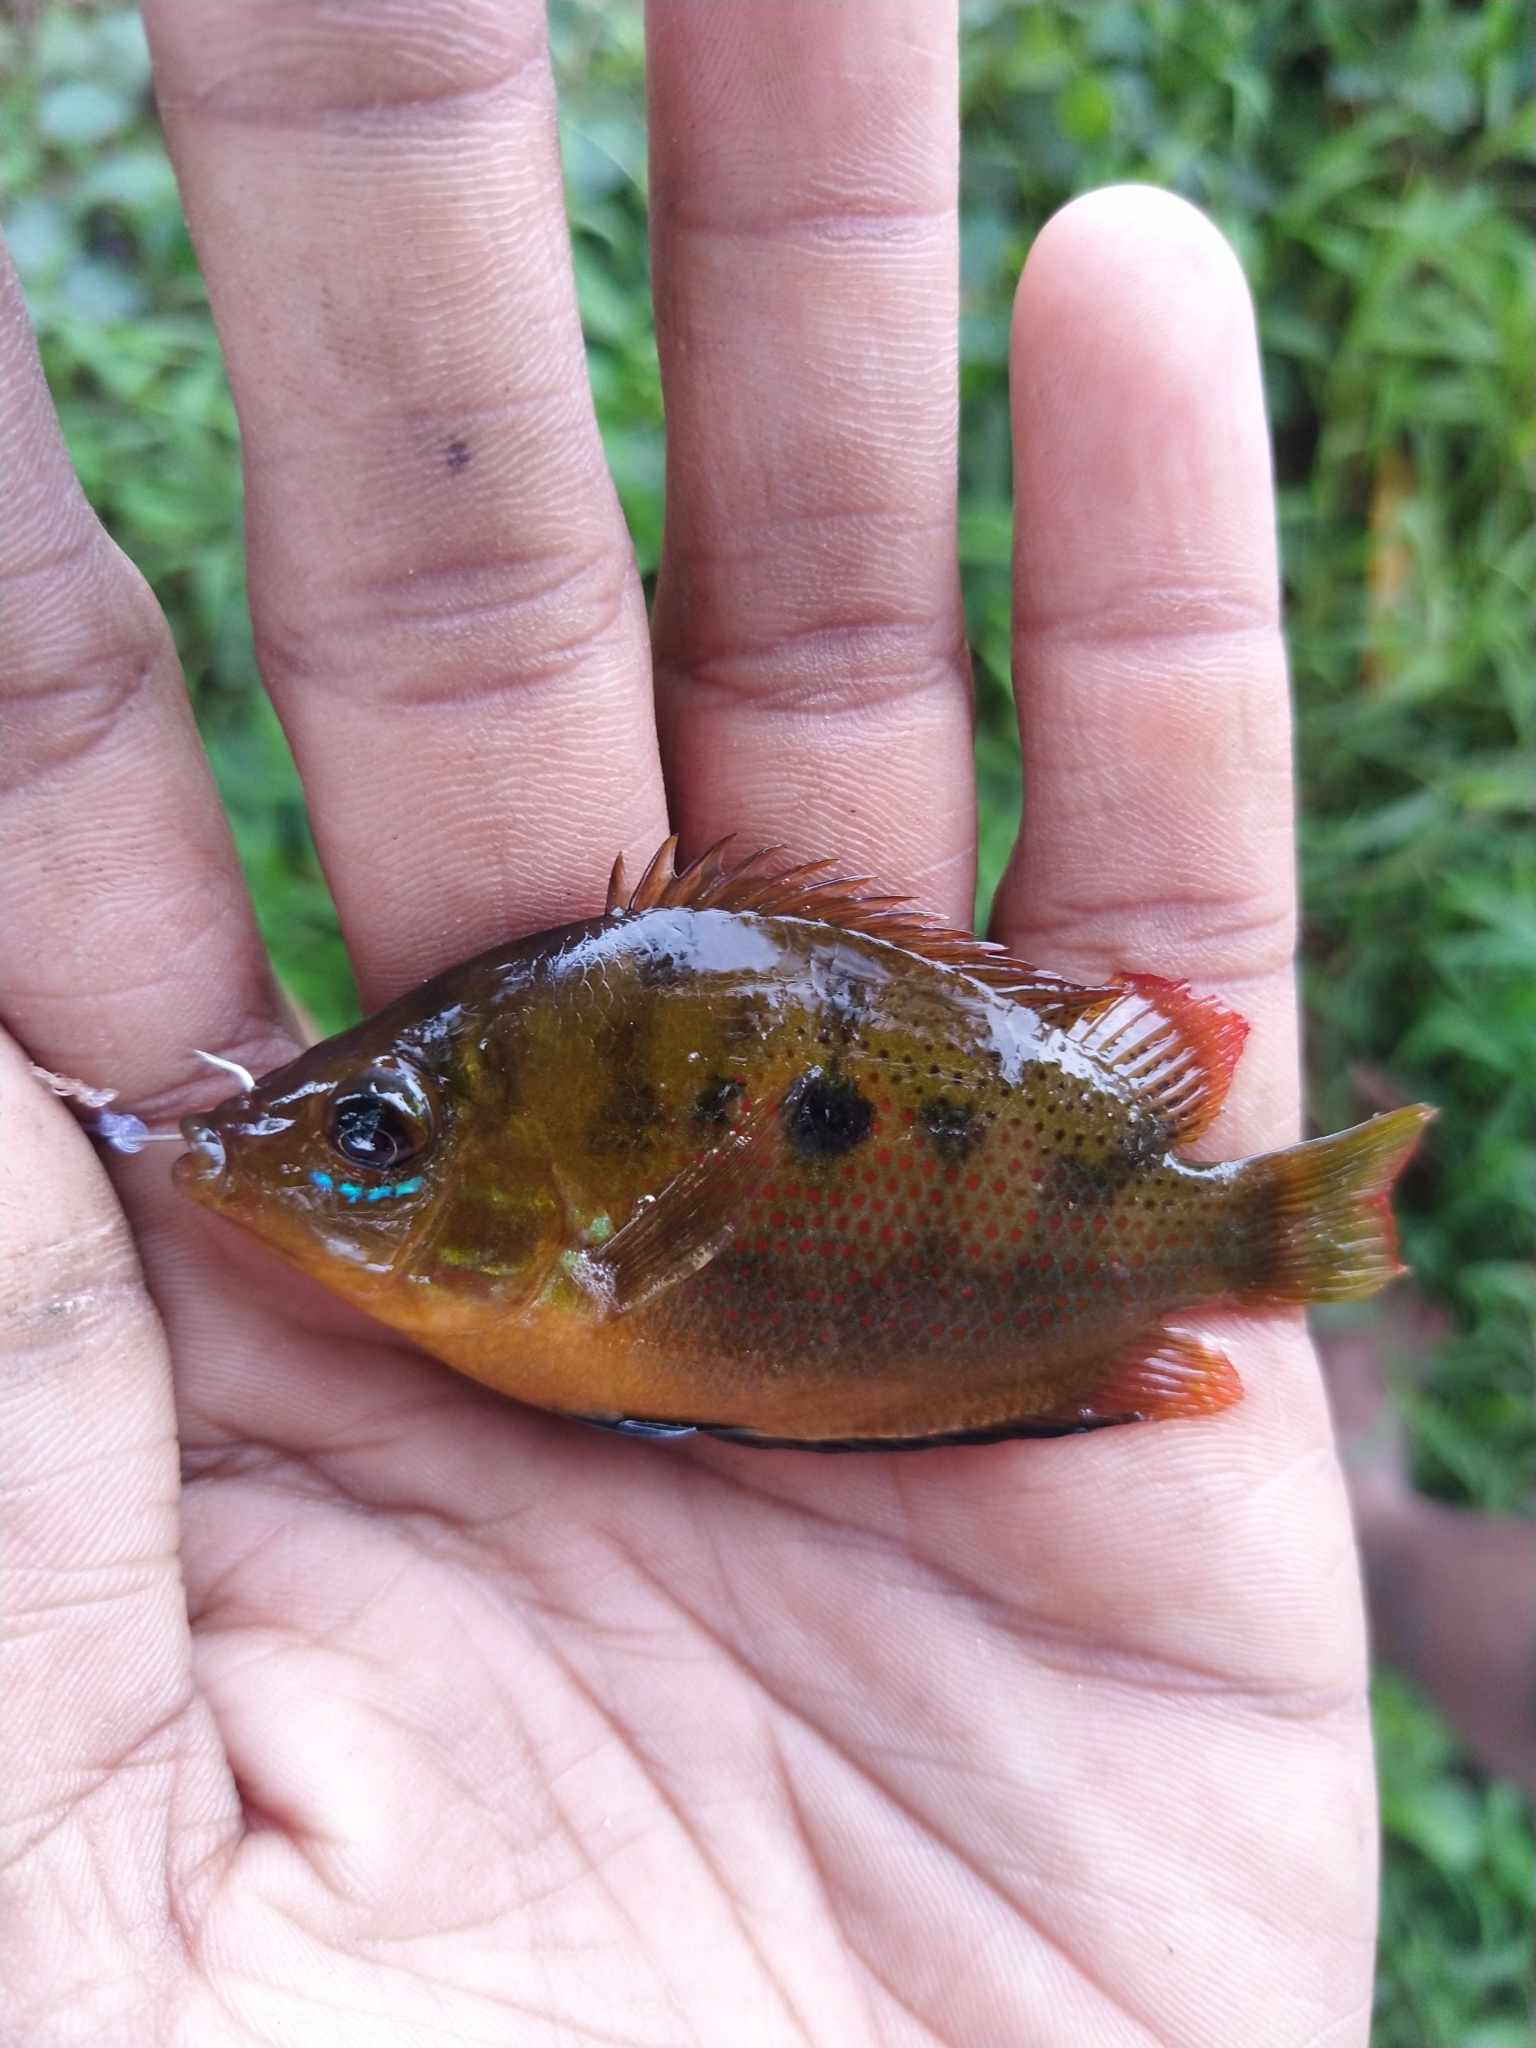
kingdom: Animalia
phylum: Chordata
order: Perciformes
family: Cichlidae
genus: Etroplus
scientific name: Etroplus maculatus
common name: Orange chromide
